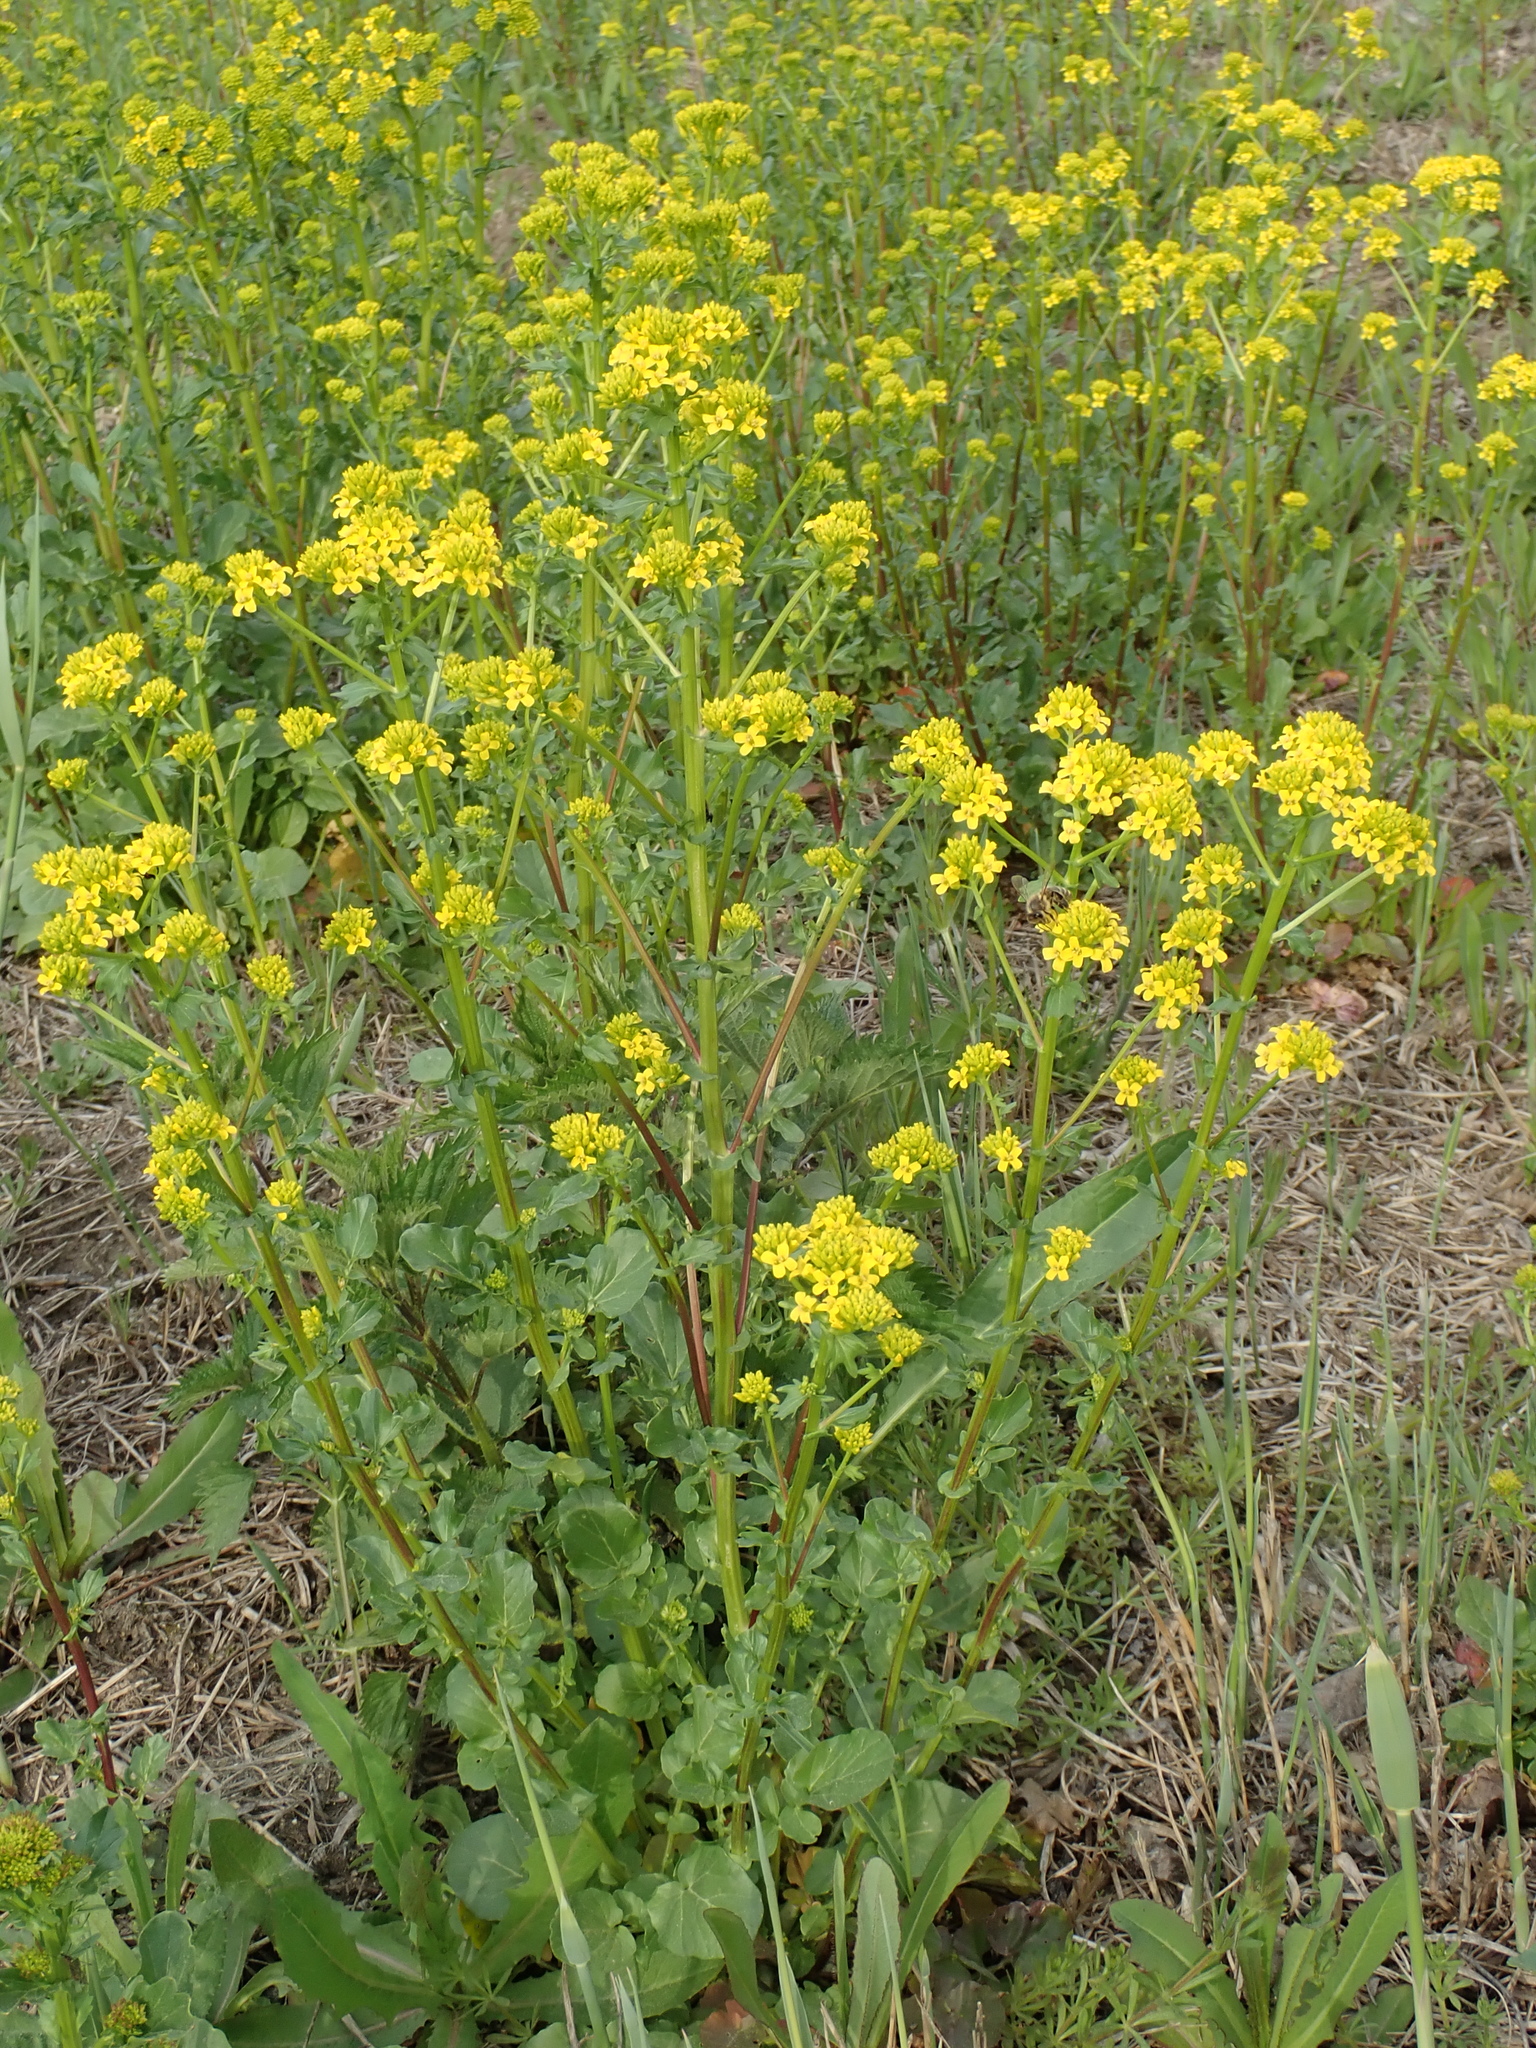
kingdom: Plantae
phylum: Tracheophyta
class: Magnoliopsida
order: Brassicales
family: Brassicaceae
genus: Barbarea
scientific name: Barbarea vulgaris
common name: Cressy-greens
